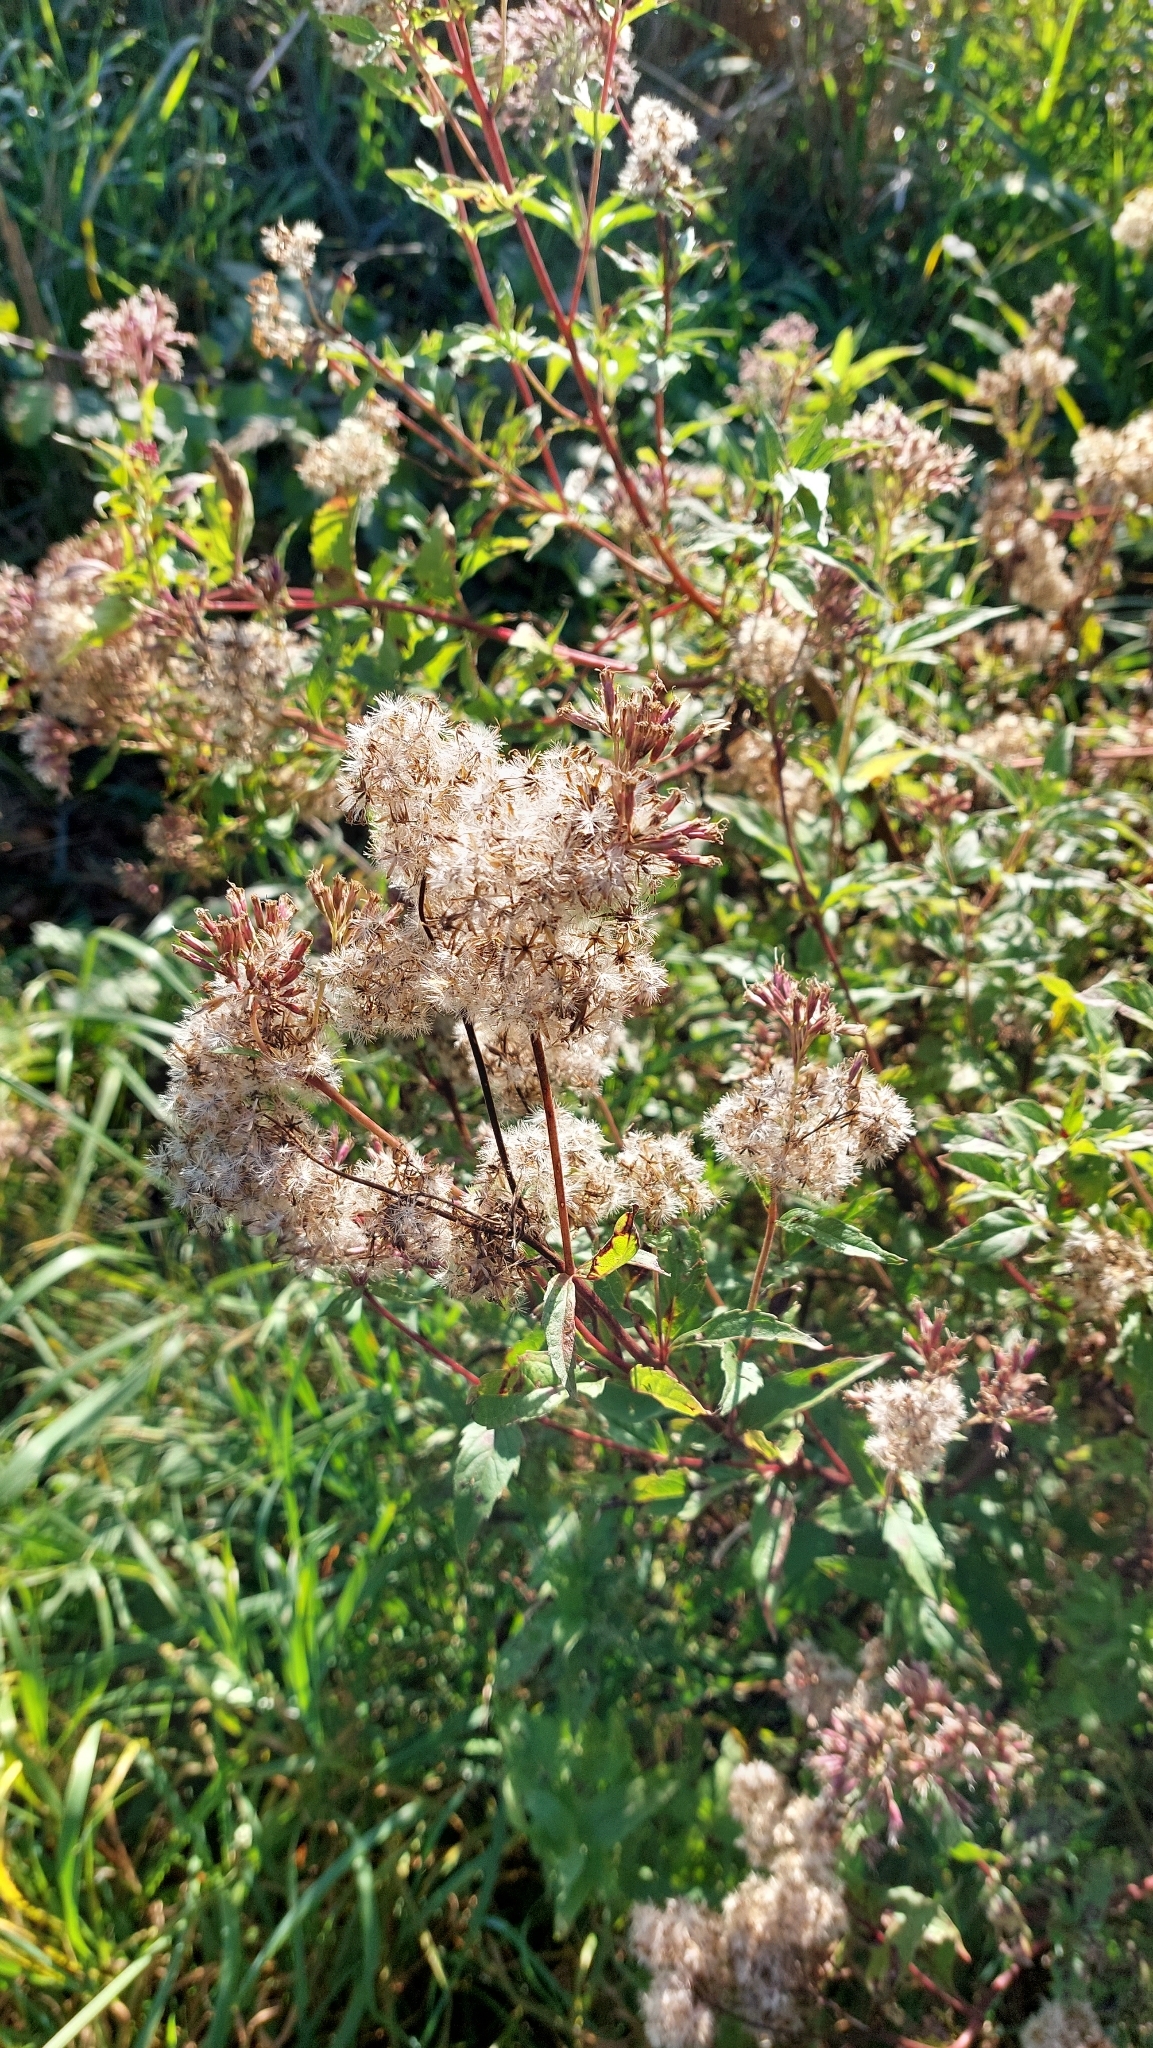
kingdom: Plantae
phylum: Tracheophyta
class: Magnoliopsida
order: Asterales
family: Asteraceae
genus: Eupatorium
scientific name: Eupatorium cannabinum
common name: Hemp-agrimony
